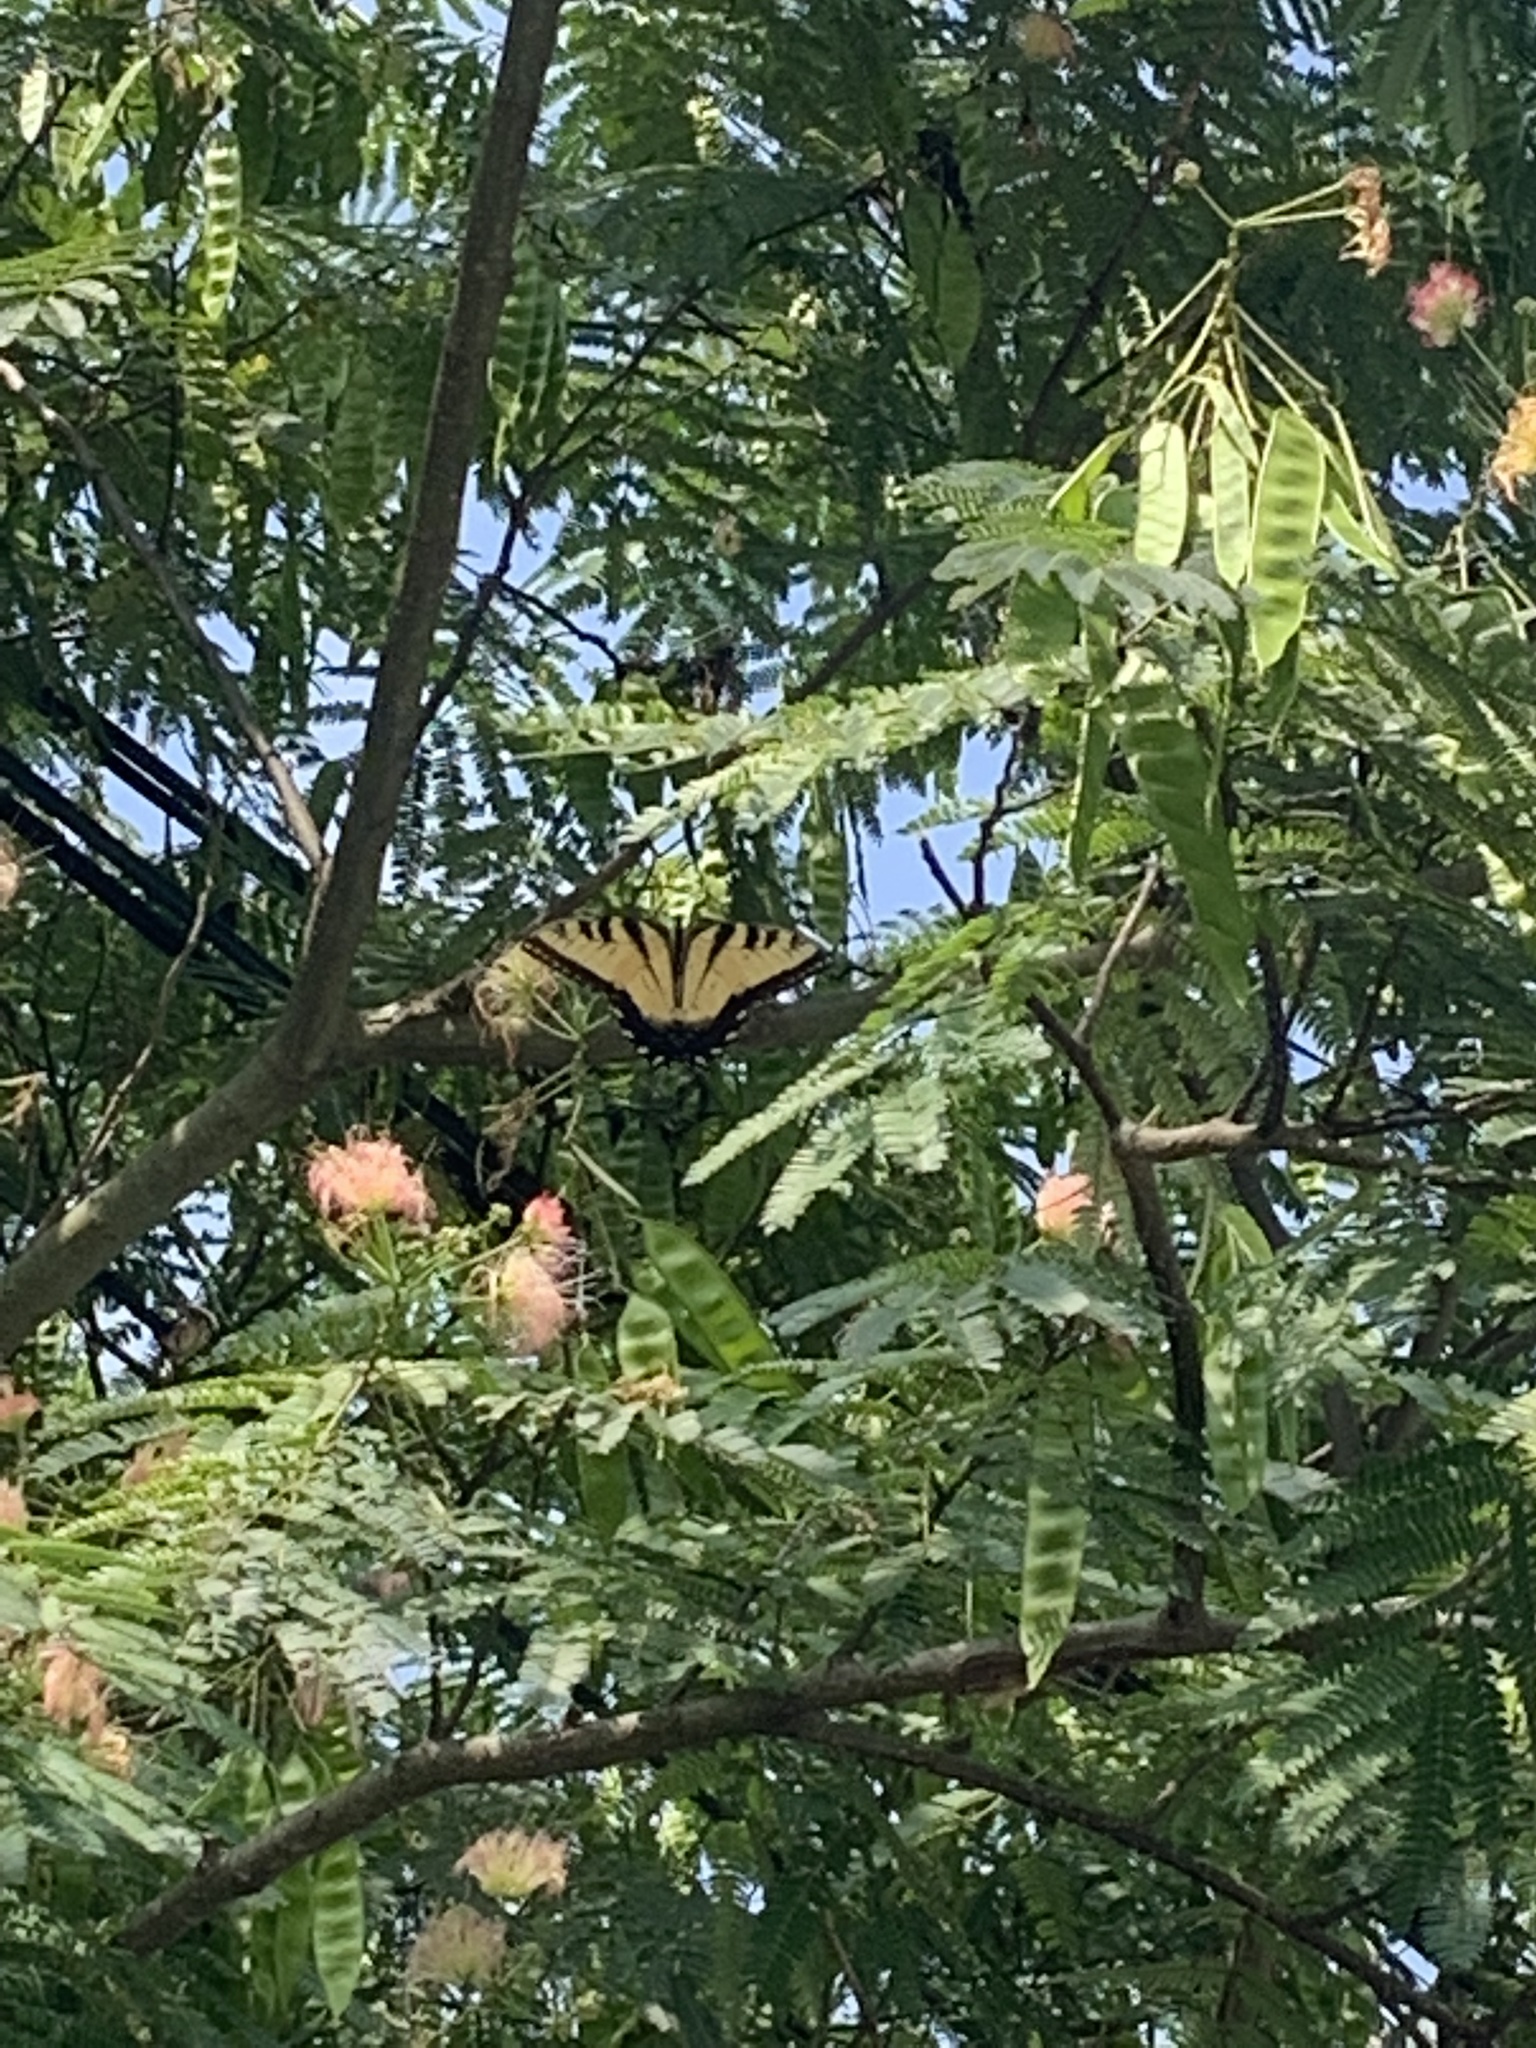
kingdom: Animalia
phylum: Arthropoda
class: Insecta
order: Lepidoptera
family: Papilionidae
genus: Papilio
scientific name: Papilio glaucus
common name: Tiger swallowtail
